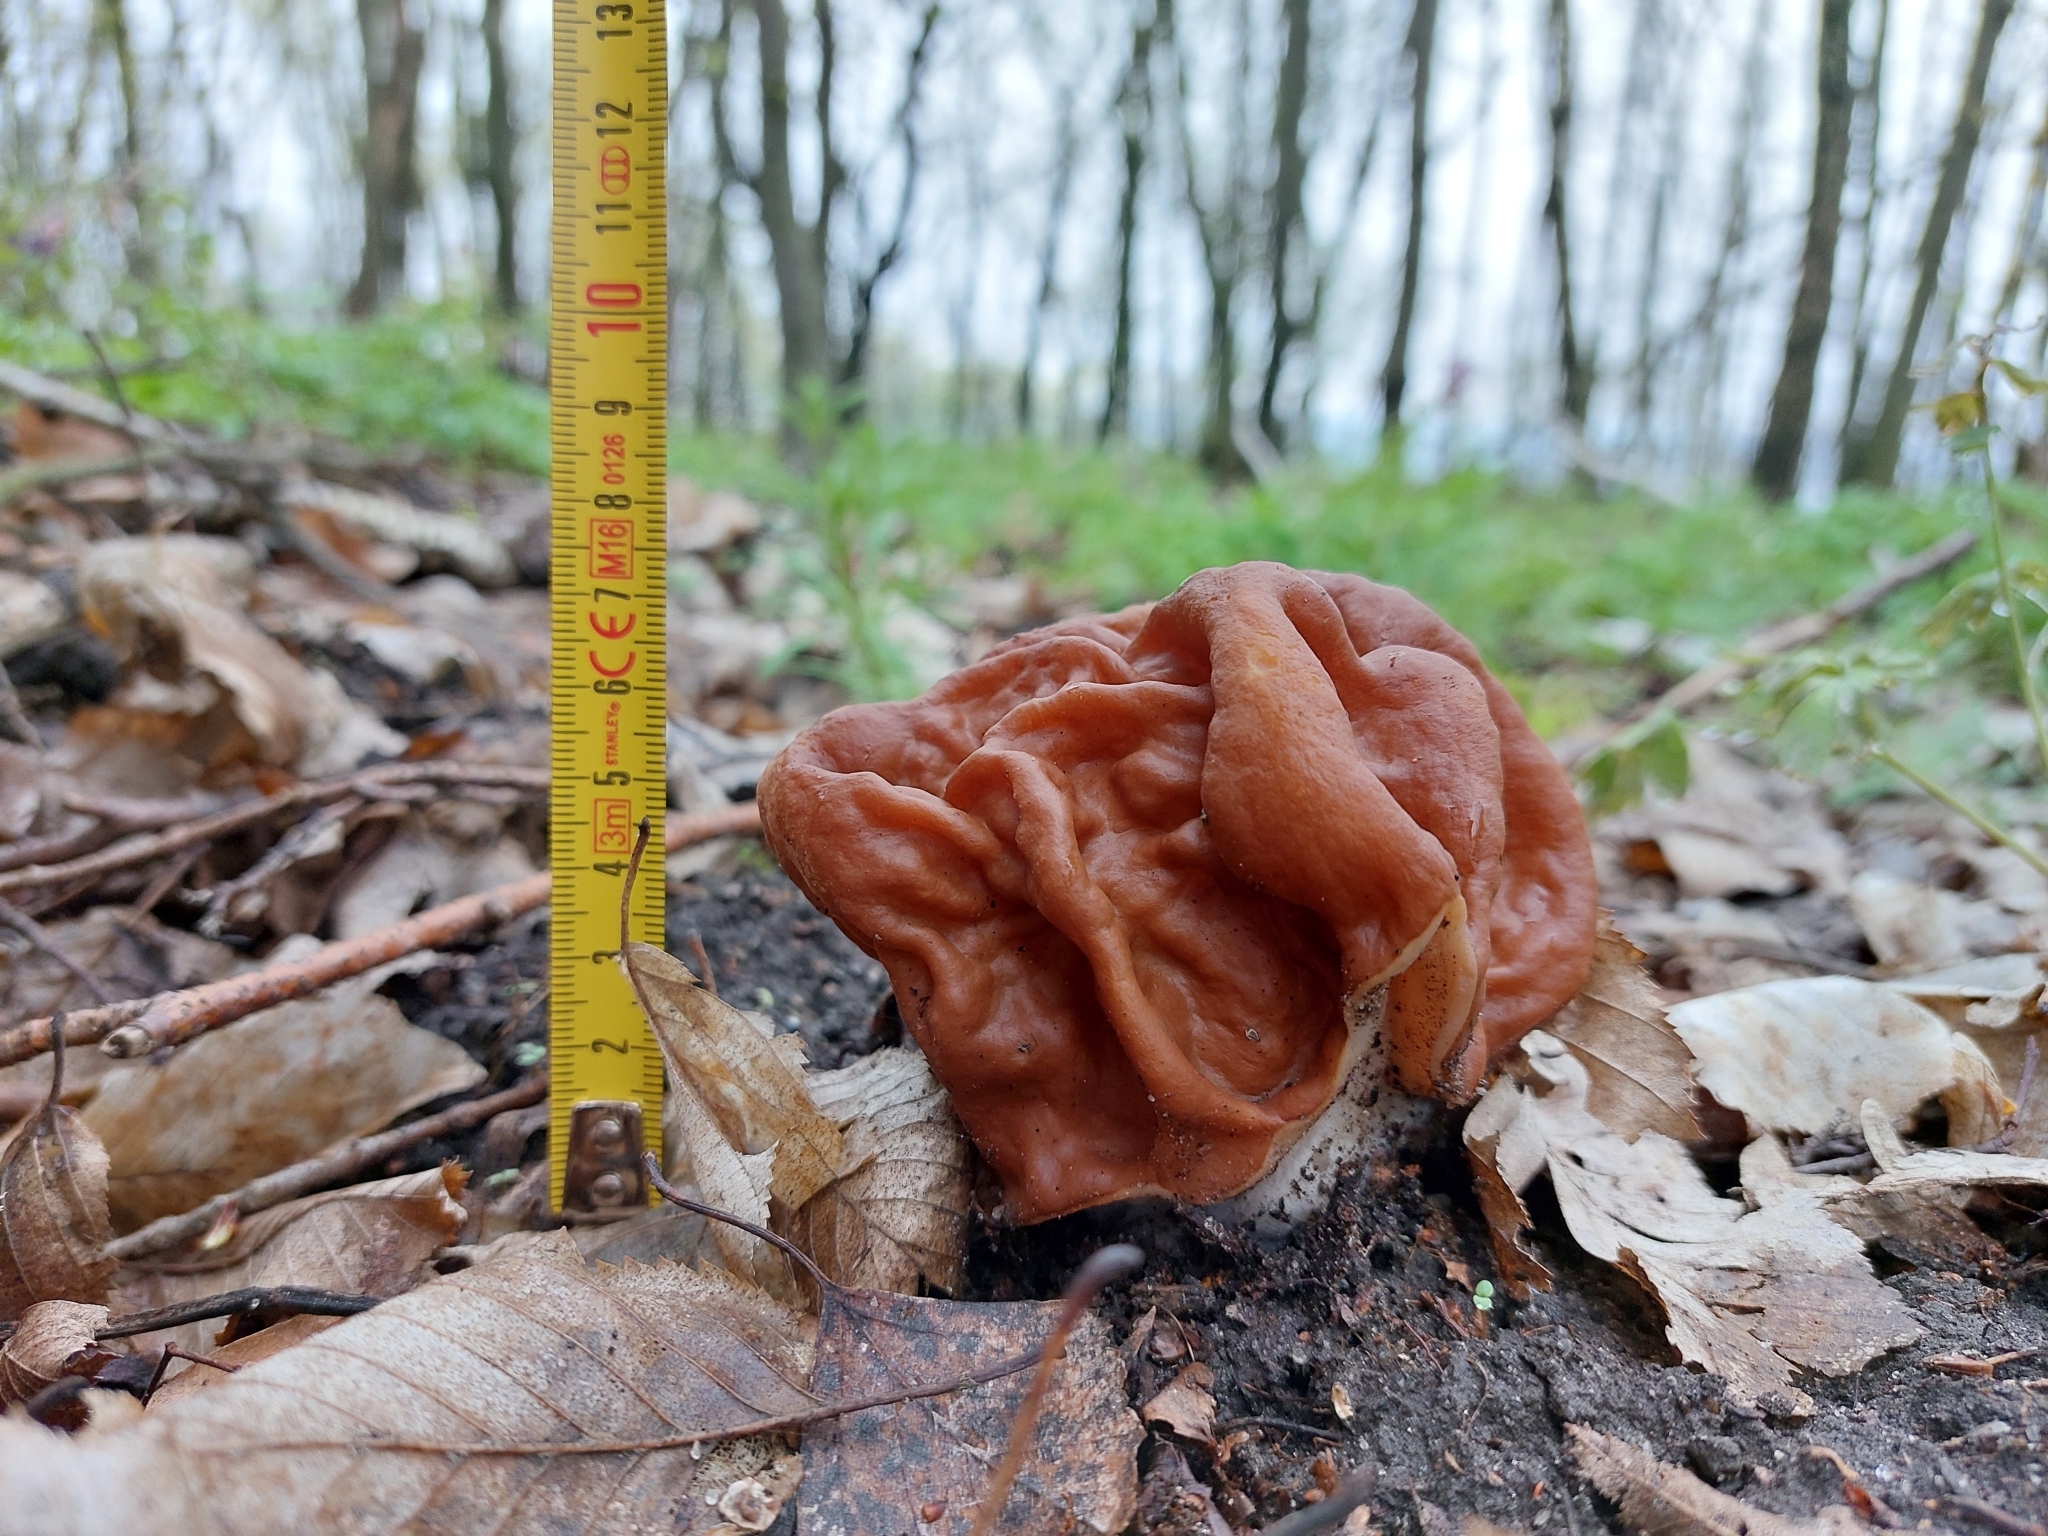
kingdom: Fungi
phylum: Ascomycota
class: Pezizomycetes
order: Pezizales
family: Discinaceae
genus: Gyromitra
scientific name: Gyromitra gigas
